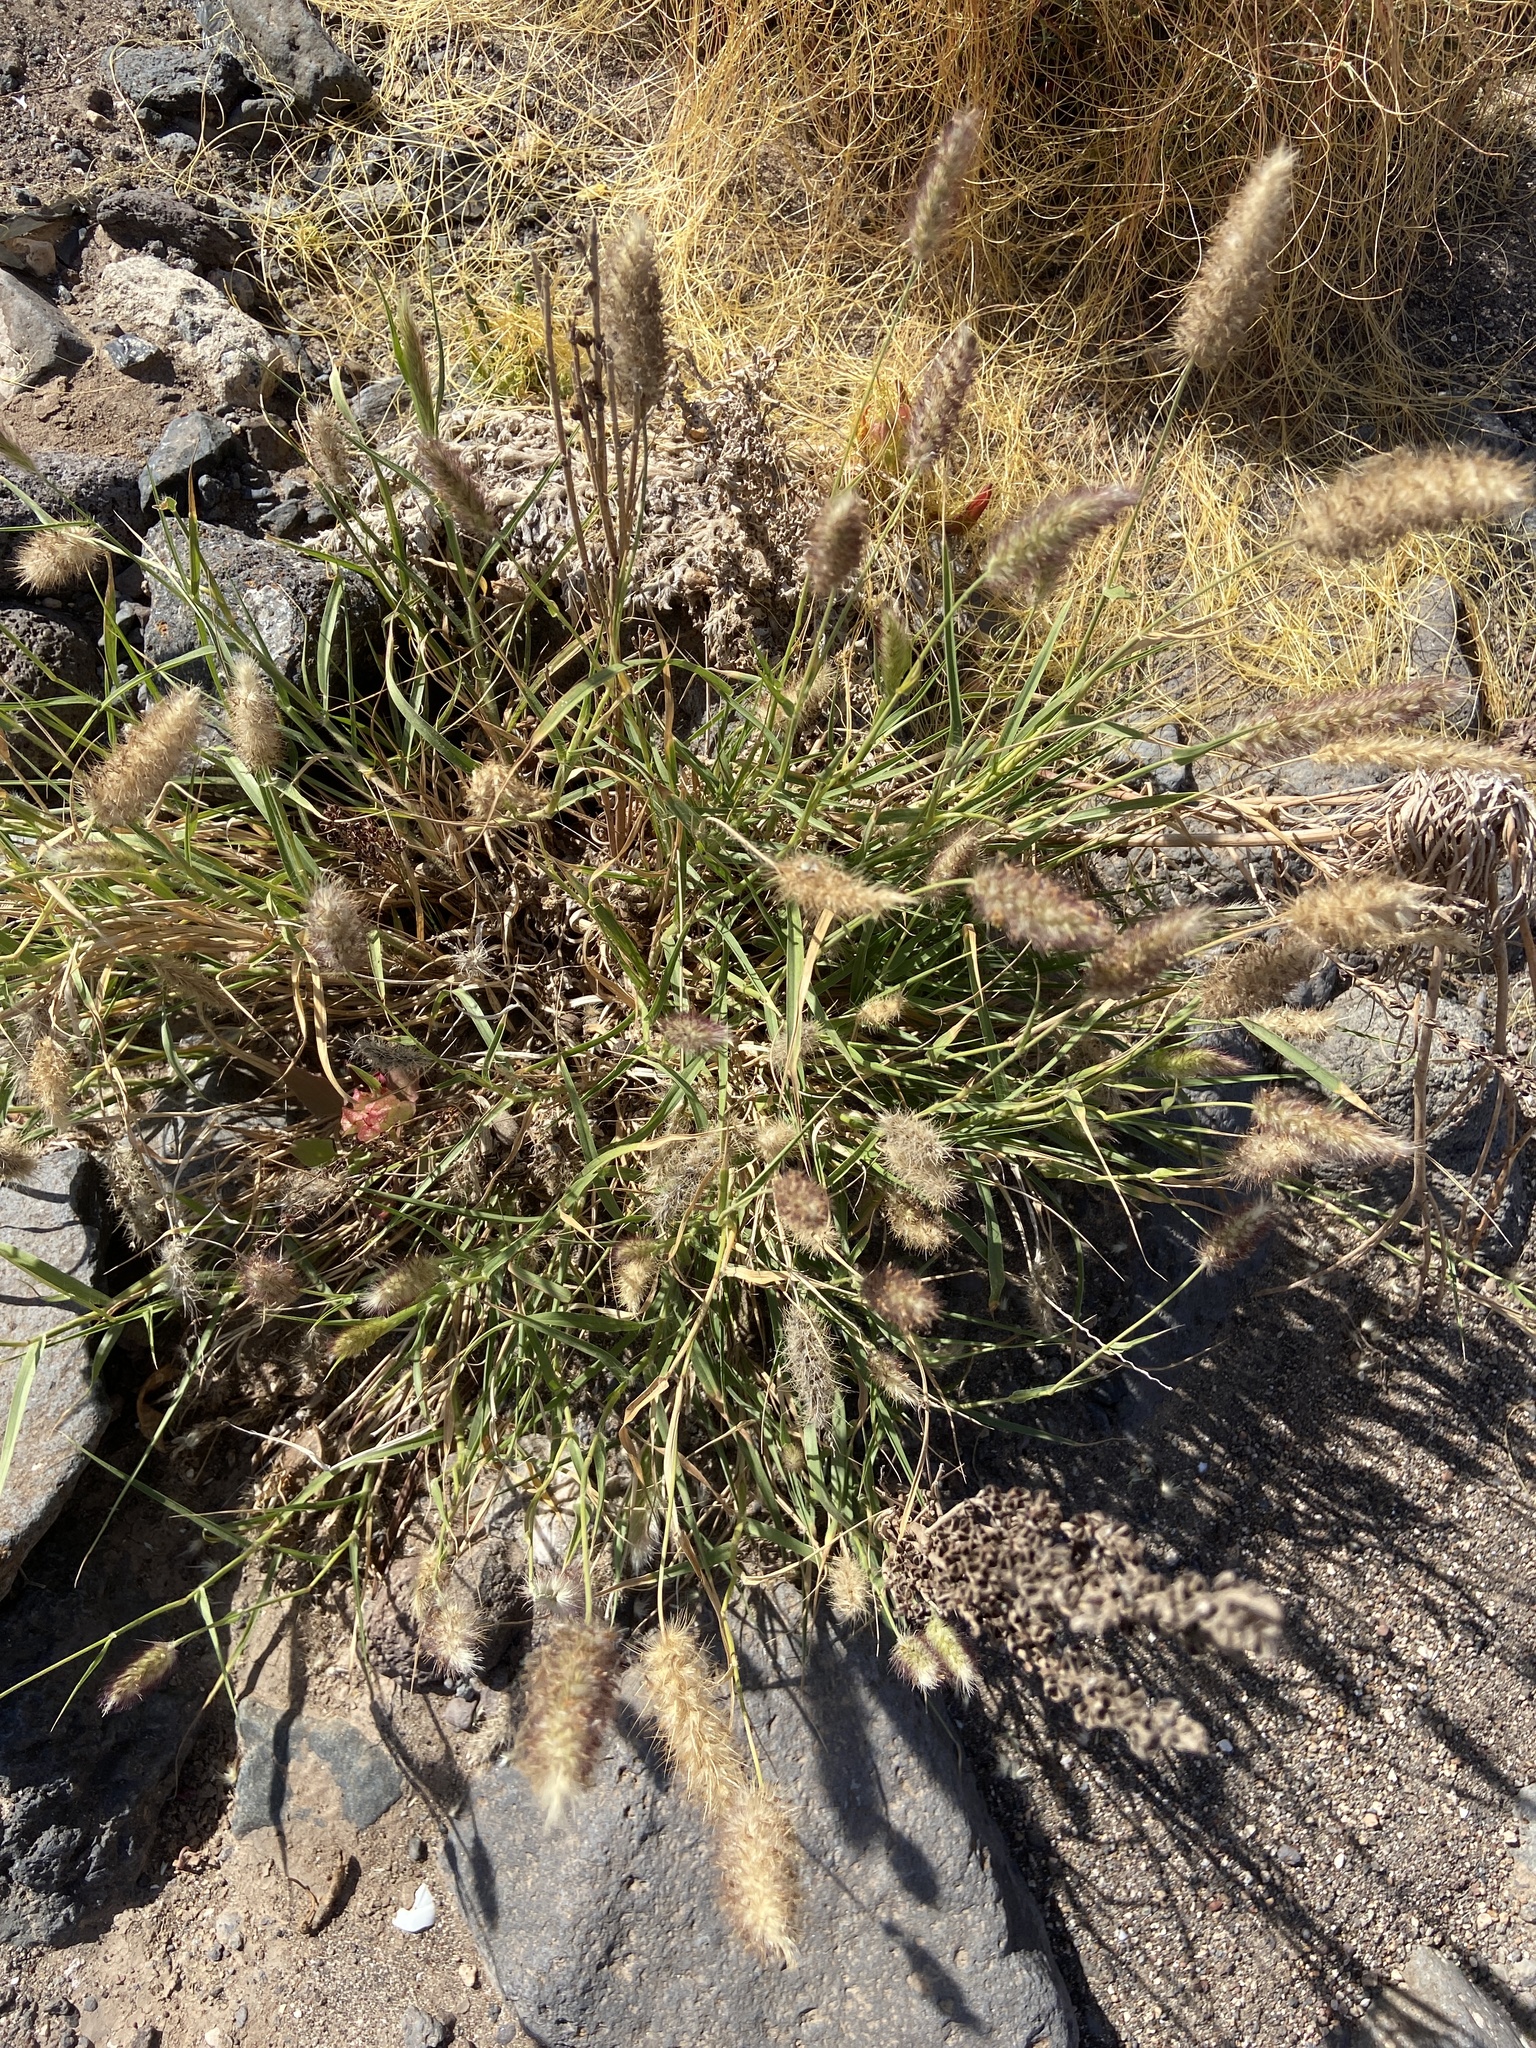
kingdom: Plantae
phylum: Tracheophyta
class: Liliopsida
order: Poales
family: Poaceae
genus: Cenchrus
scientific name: Cenchrus ciliaris
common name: Buffelgrass
